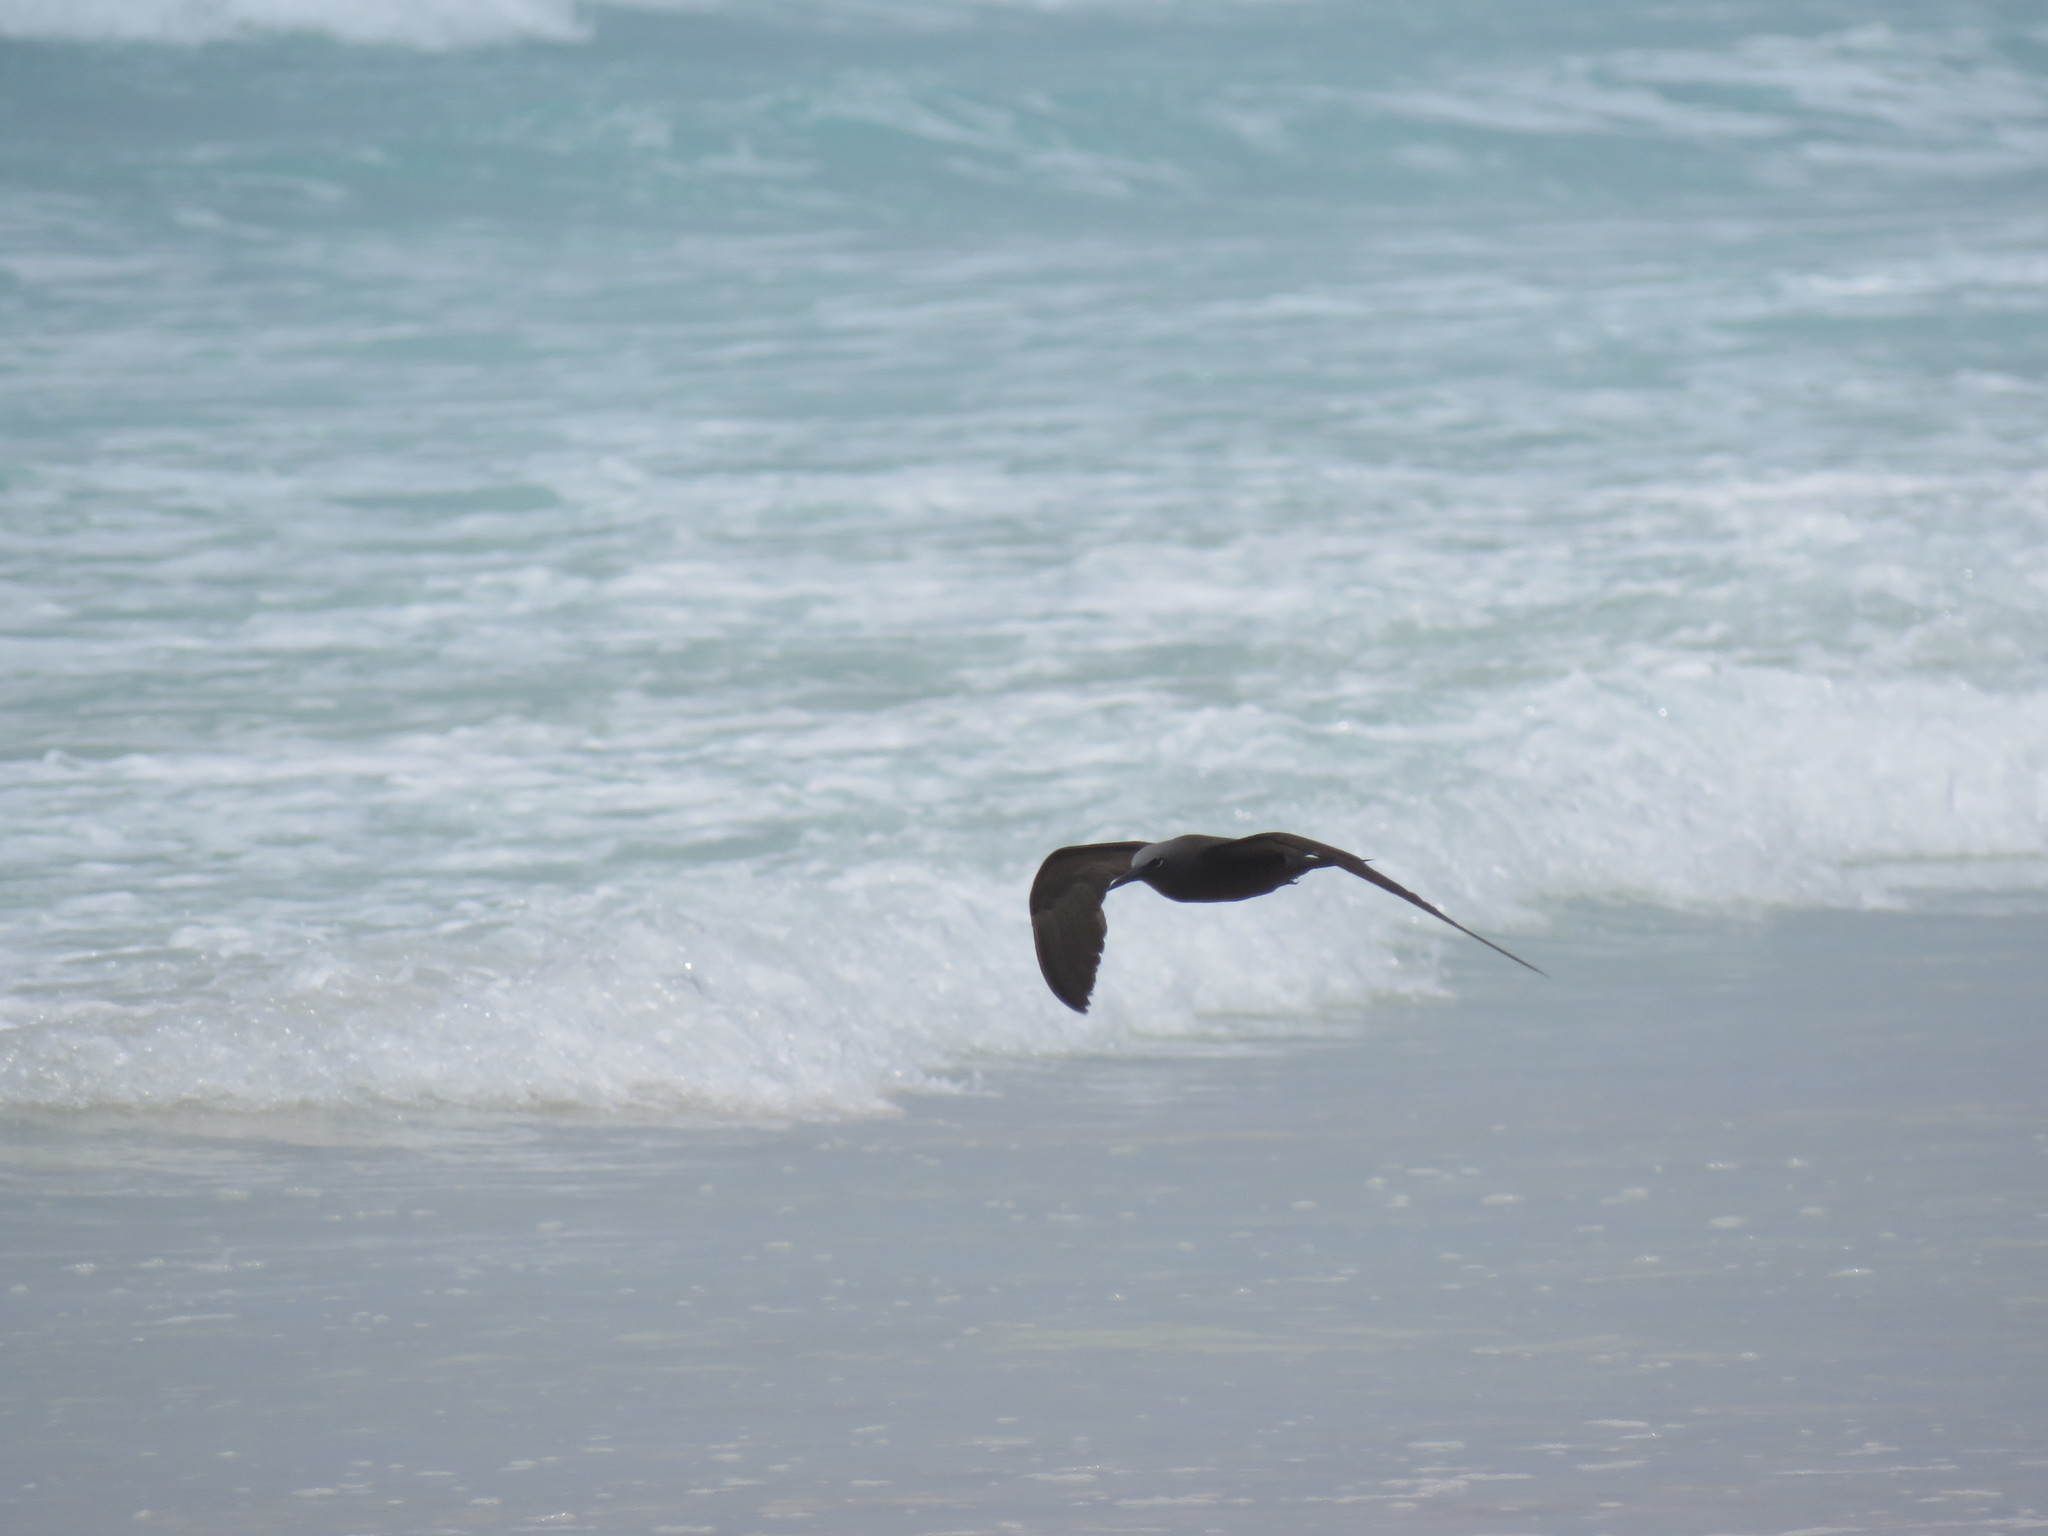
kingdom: Animalia
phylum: Chordata
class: Aves
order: Charadriiformes
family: Laridae
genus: Anous
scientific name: Anous stolidus
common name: Brown noddy
